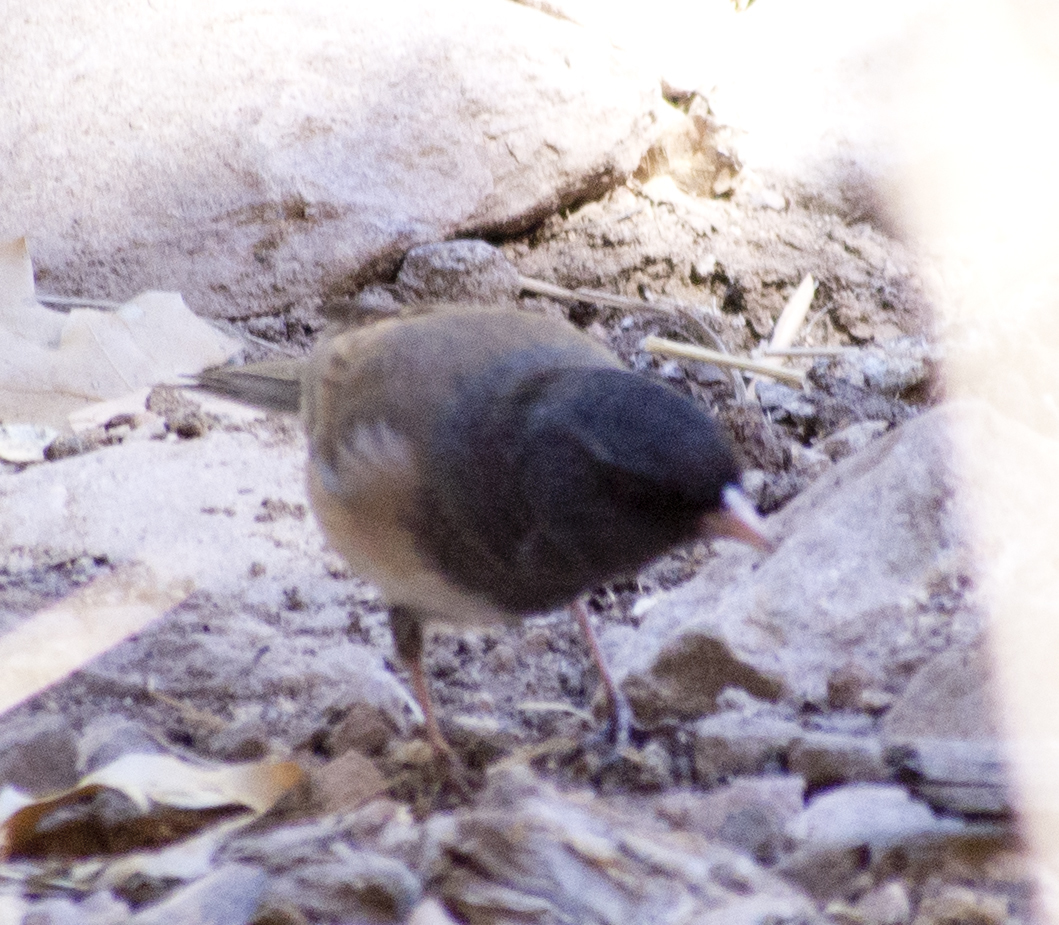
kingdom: Animalia
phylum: Chordata
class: Aves
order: Passeriformes
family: Passerellidae
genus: Junco
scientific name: Junco hyemalis
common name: Dark-eyed junco
